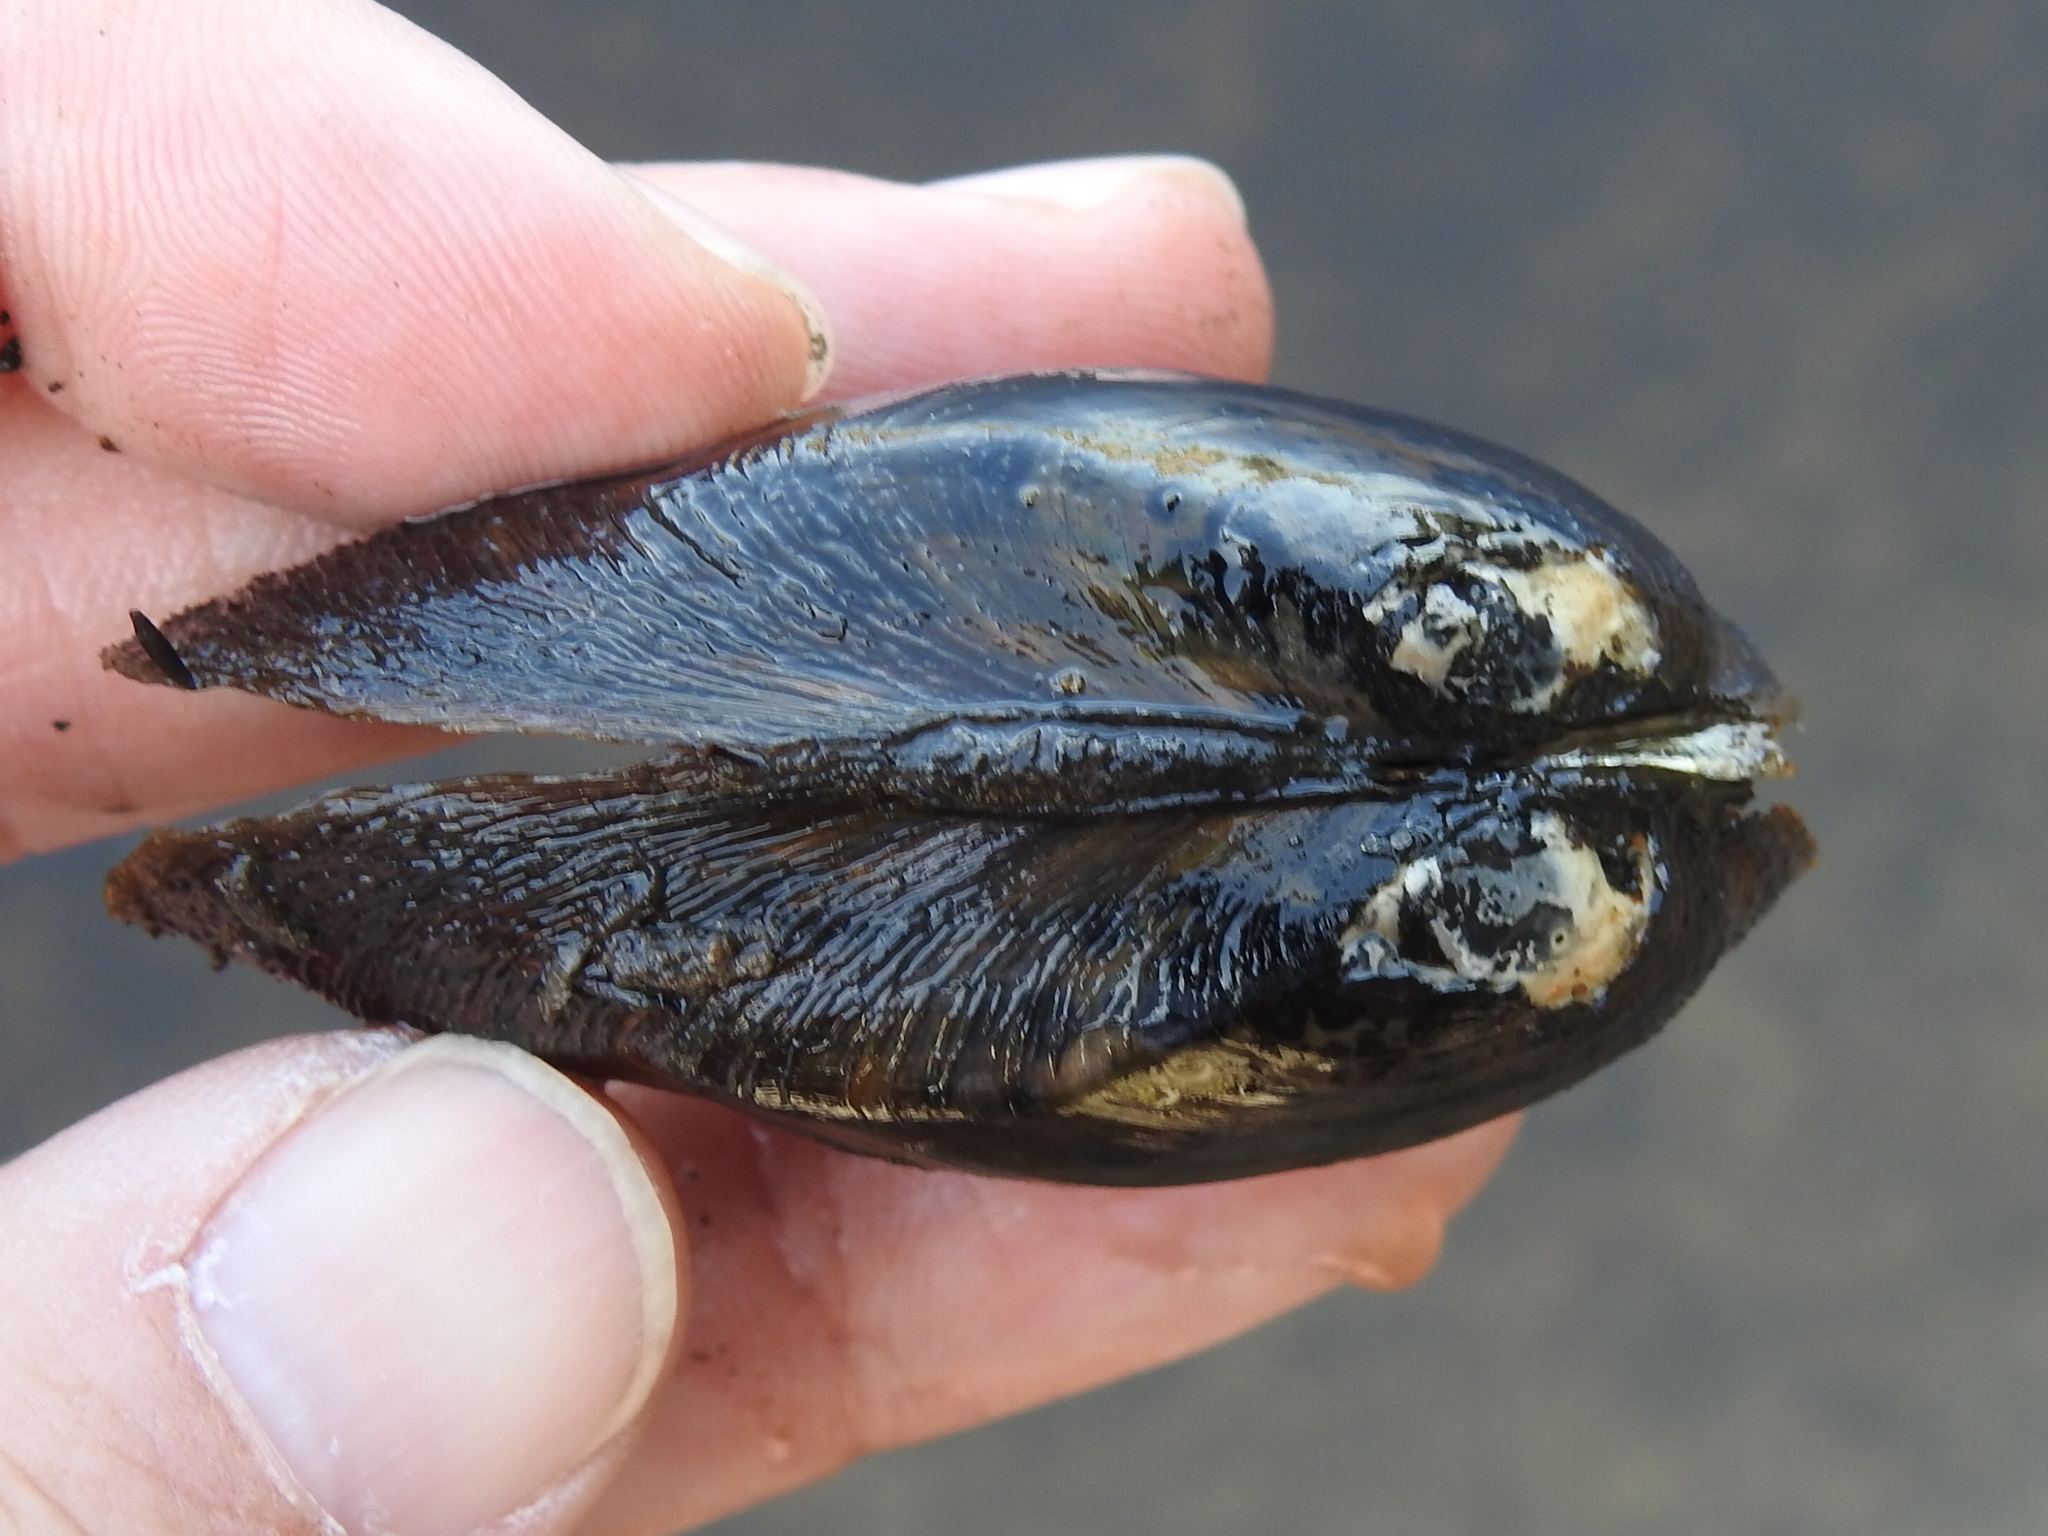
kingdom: Animalia
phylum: Mollusca
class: Bivalvia
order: Unionida
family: Unionidae
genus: Elliptio
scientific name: Elliptio jayensis
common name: Florida spike
